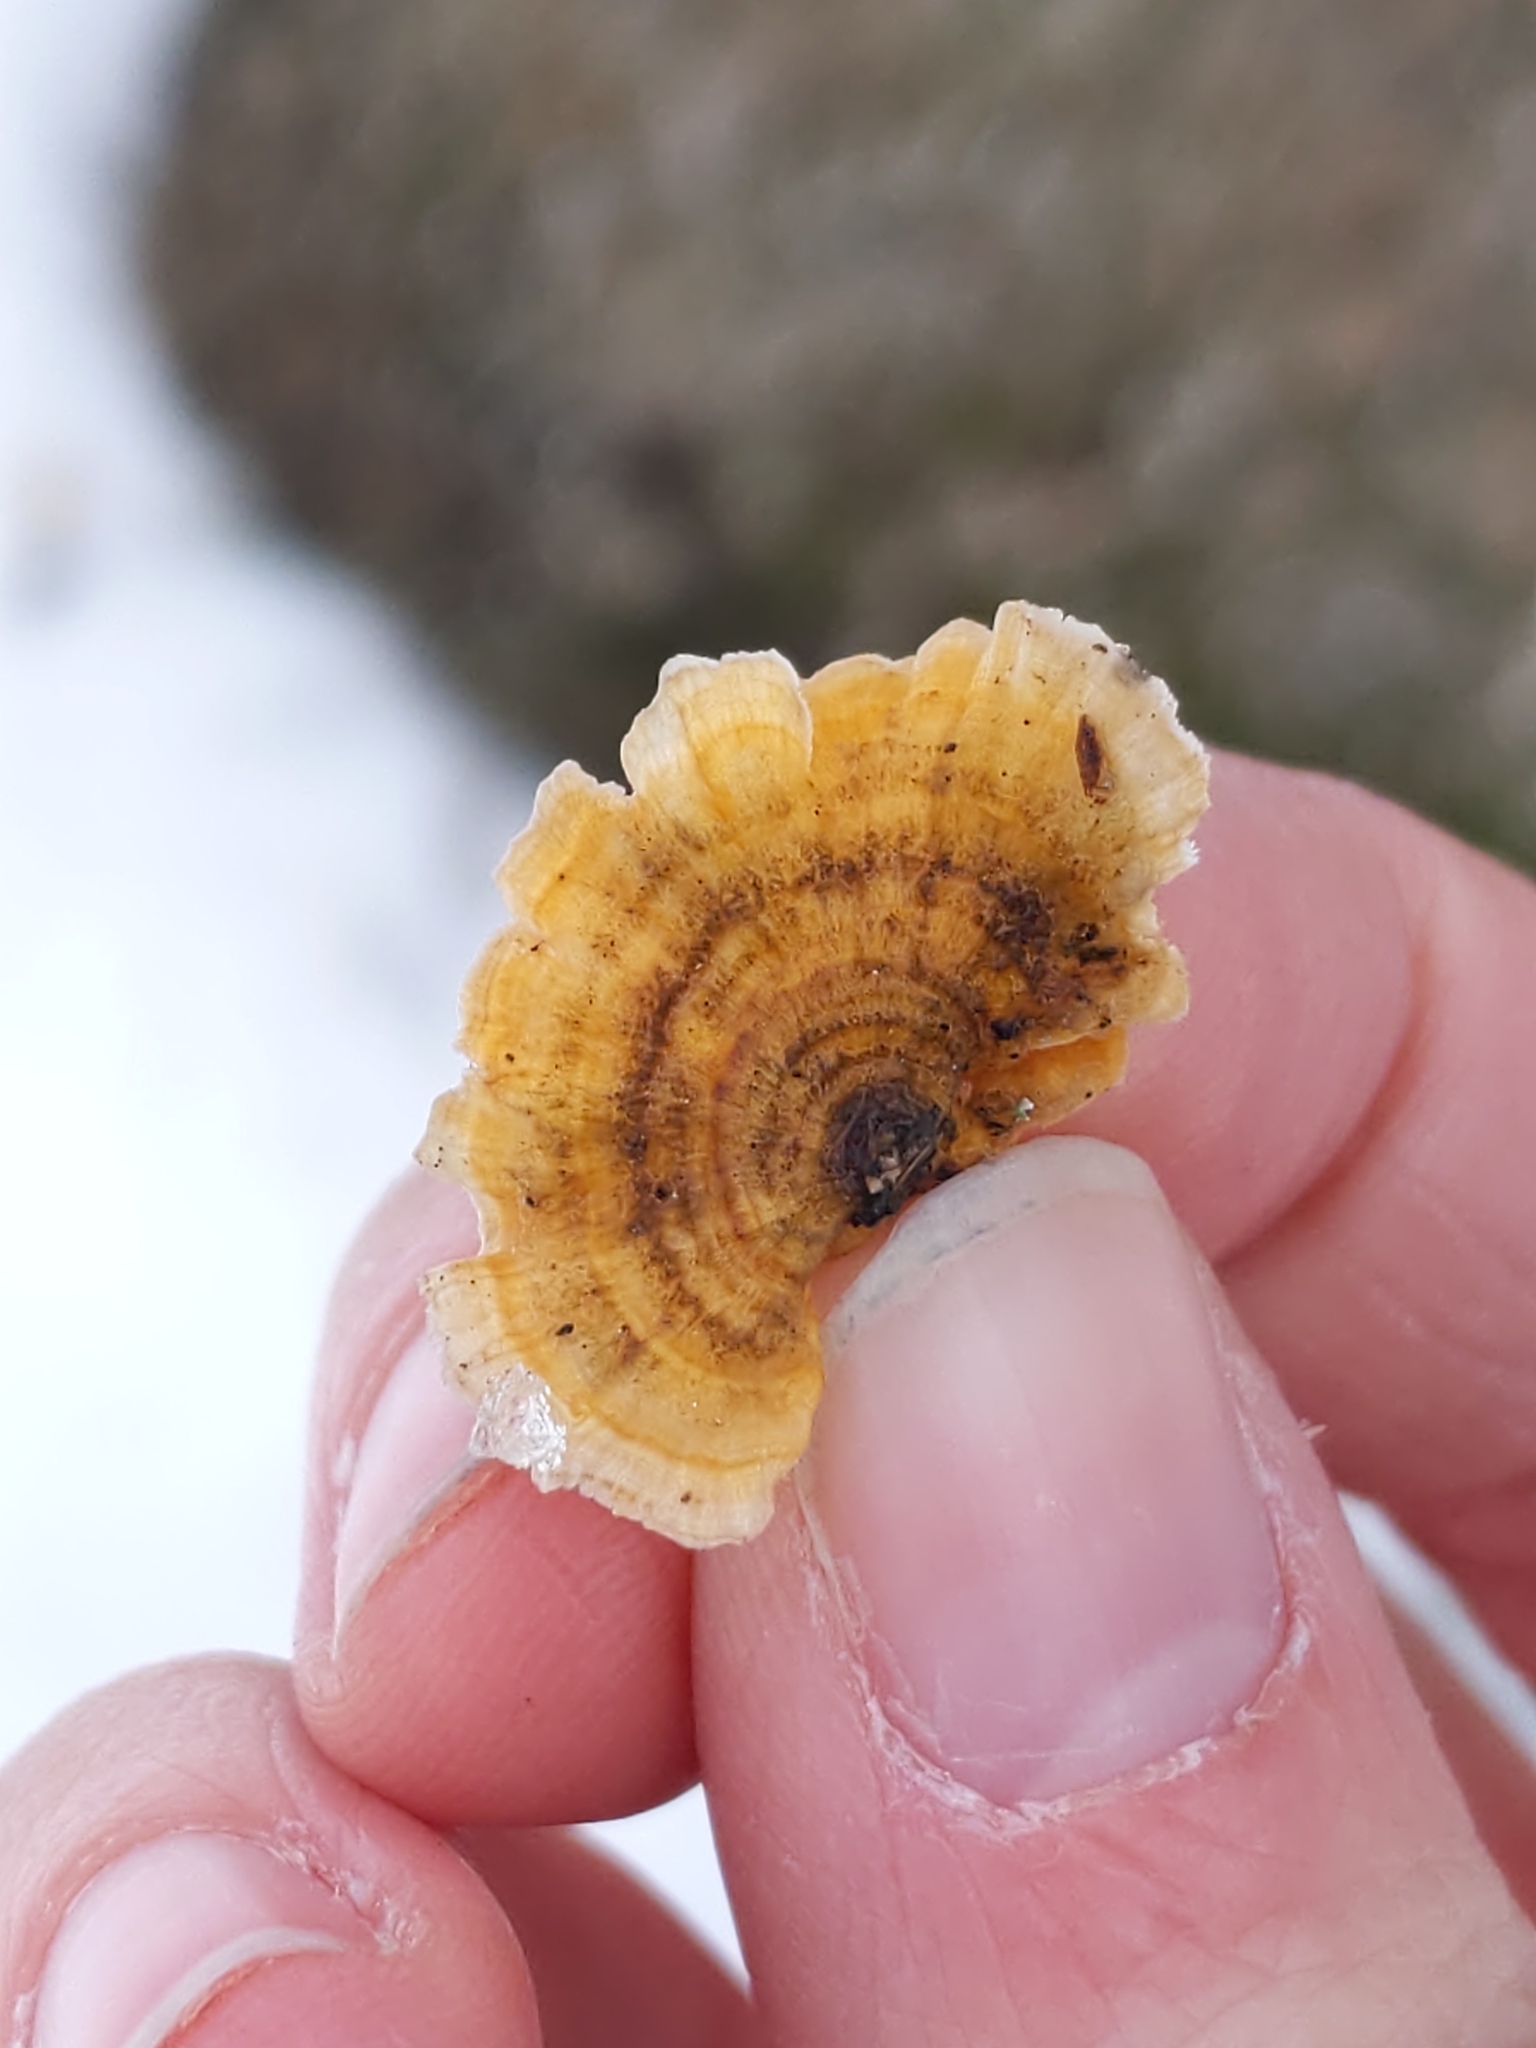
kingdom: Fungi
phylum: Basidiomycota
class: Agaricomycetes
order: Russulales
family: Stereaceae
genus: Stereum
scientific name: Stereum complicatum
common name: Crowded parchment
